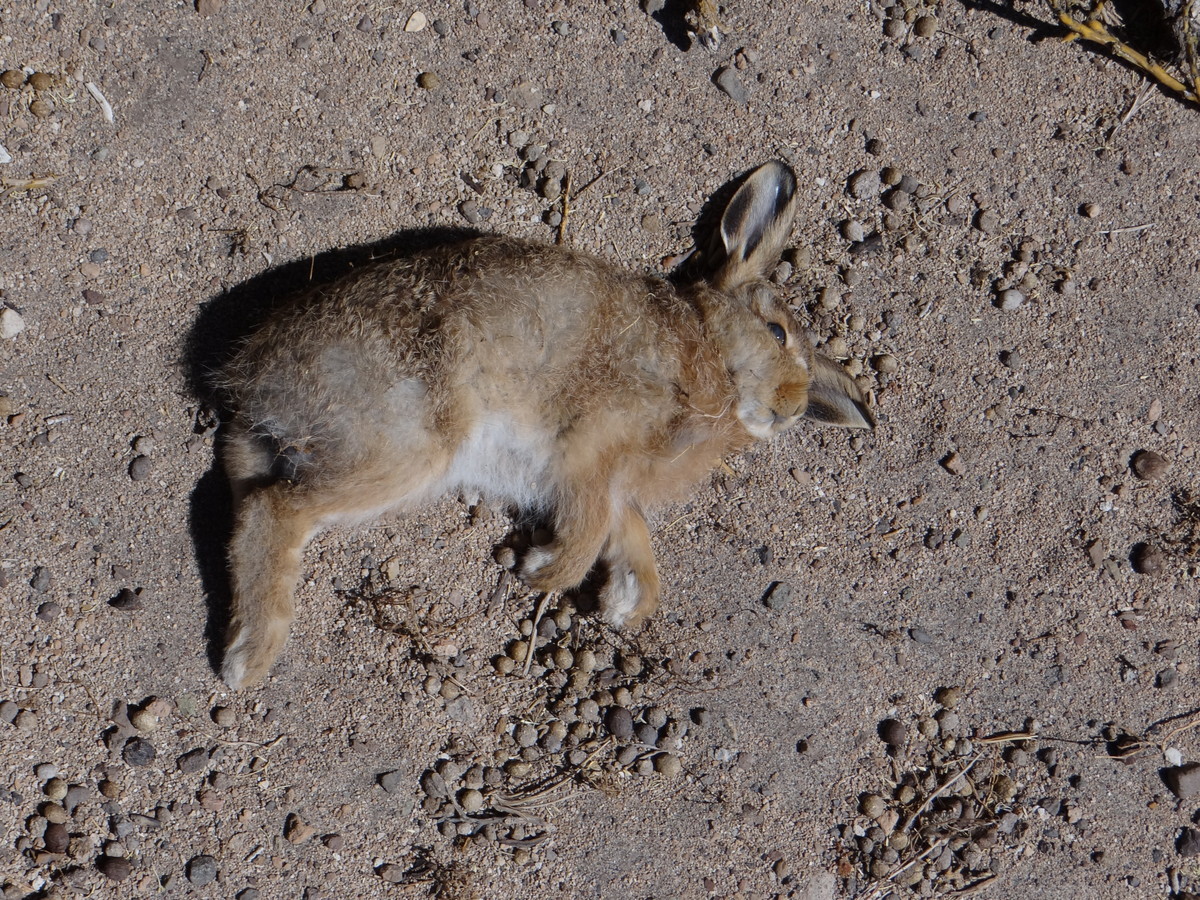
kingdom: Animalia
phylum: Chordata
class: Mammalia
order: Lagomorpha
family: Leporidae
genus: Oryctolagus
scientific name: Oryctolagus cuniculus
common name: European rabbit
